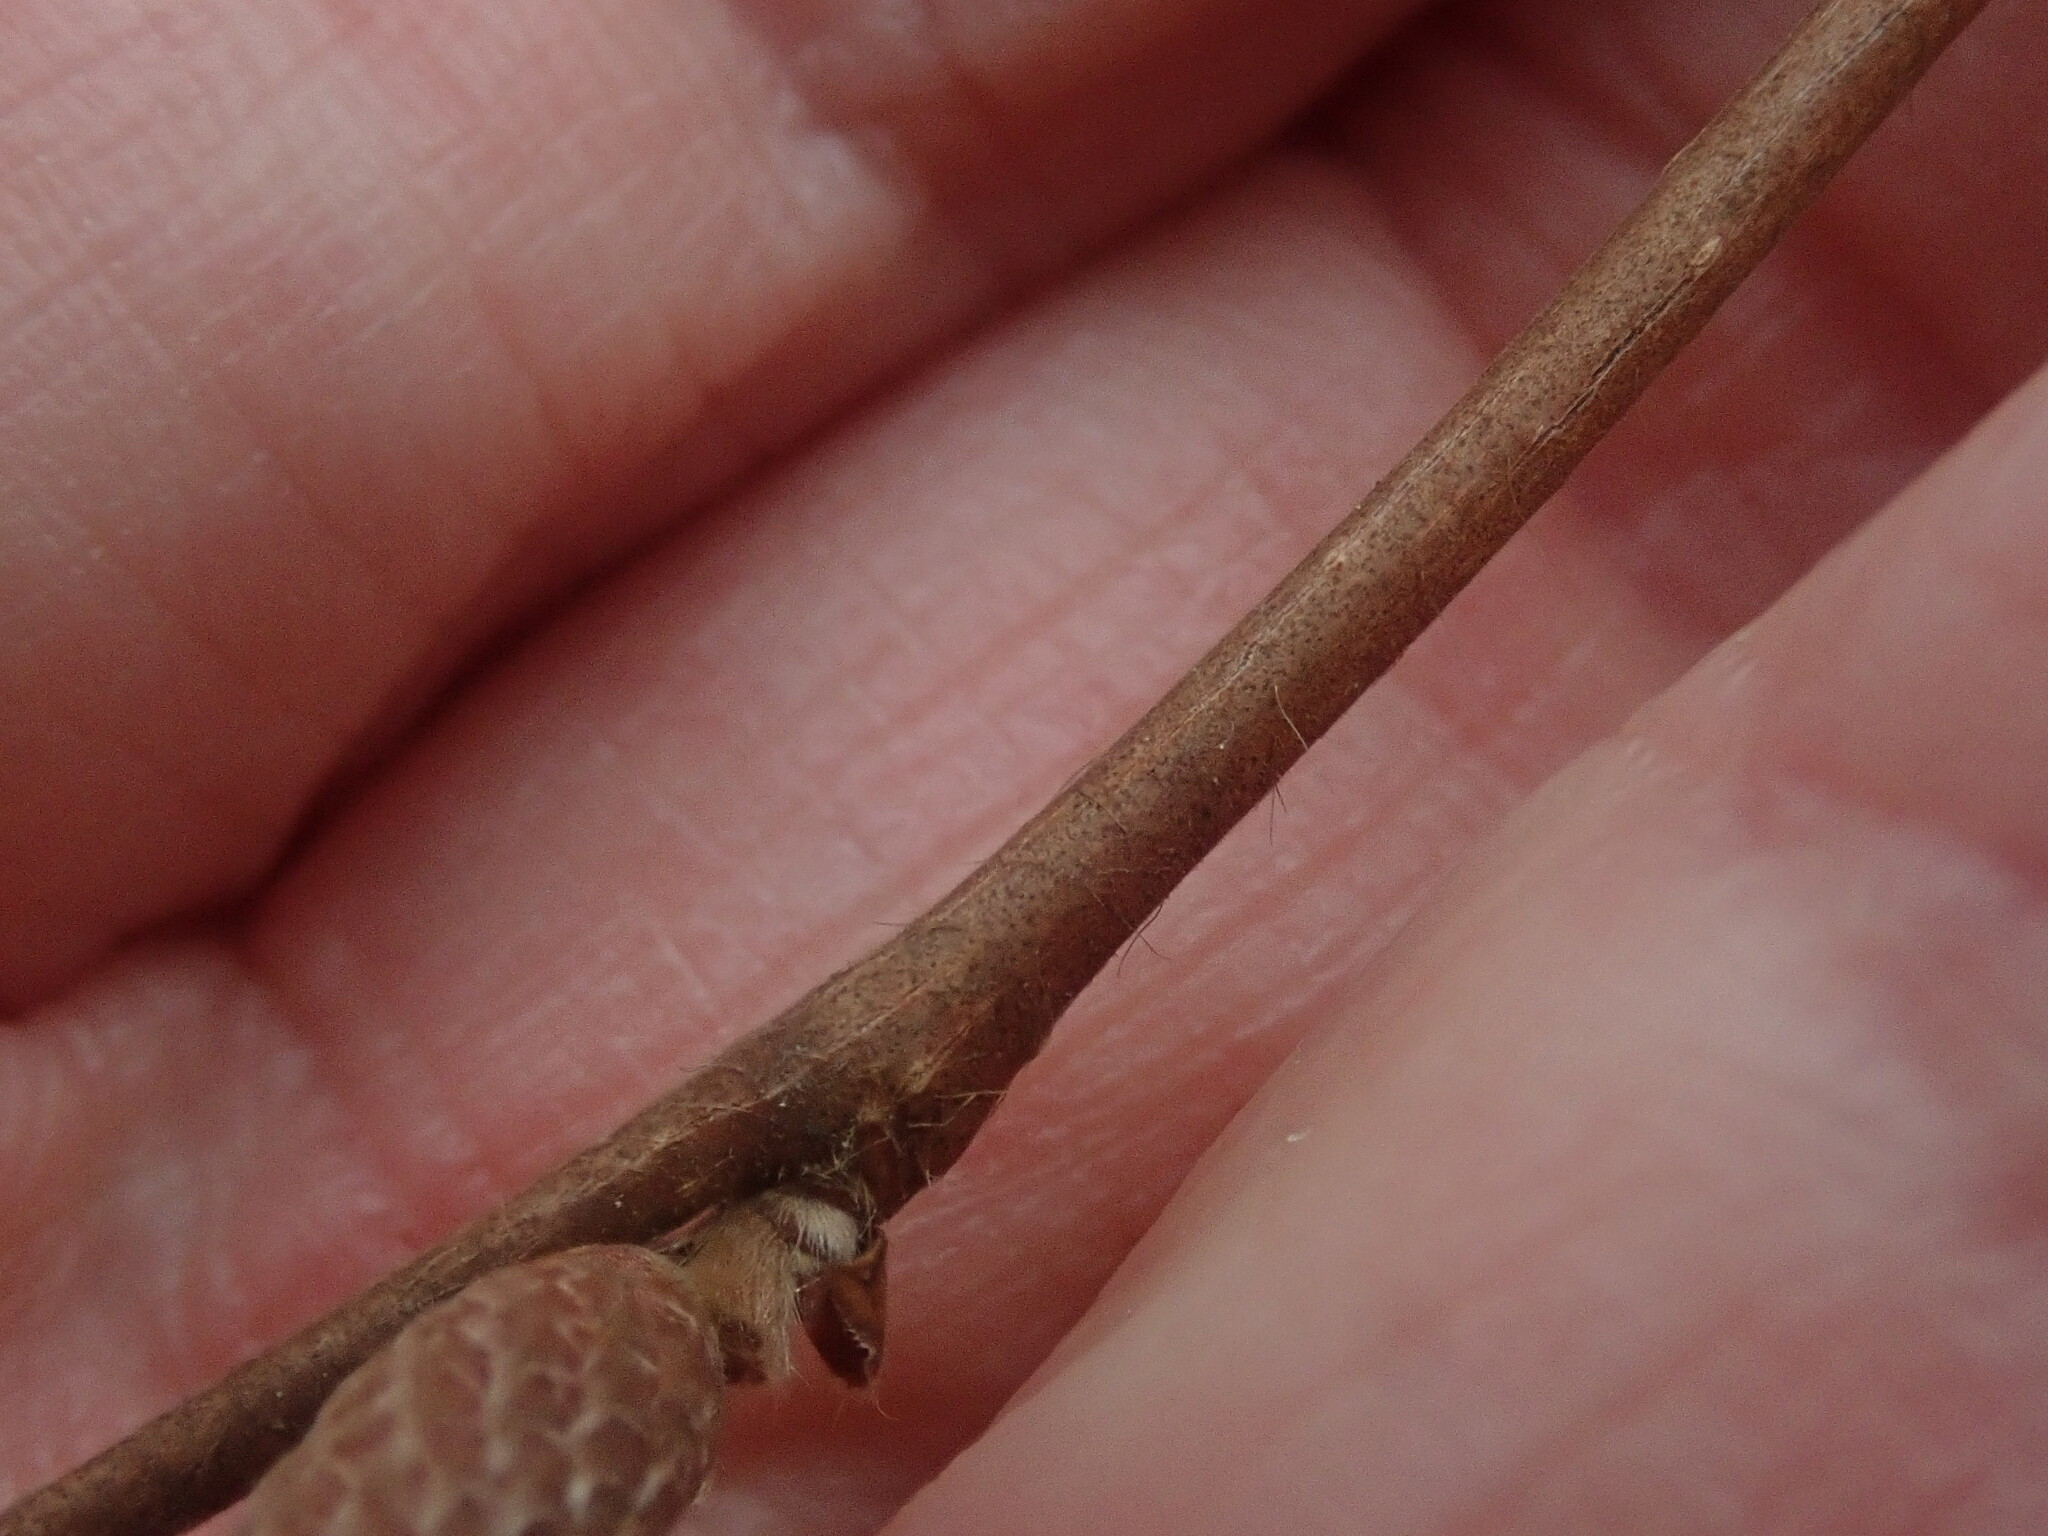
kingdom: Plantae
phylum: Tracheophyta
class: Magnoliopsida
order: Fagales
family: Betulaceae
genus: Corylus
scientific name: Corylus cornuta
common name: Beaked hazel
